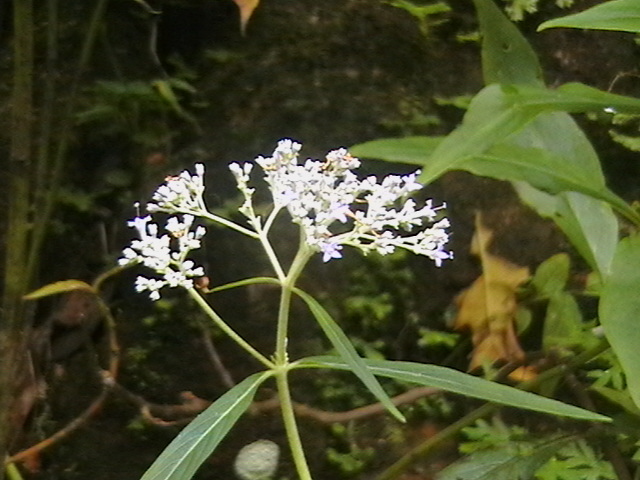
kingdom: Plantae
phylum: Tracheophyta
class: Magnoliopsida
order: Gentianales
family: Rubiaceae
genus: Chassalia
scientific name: Chassalia curviflora
